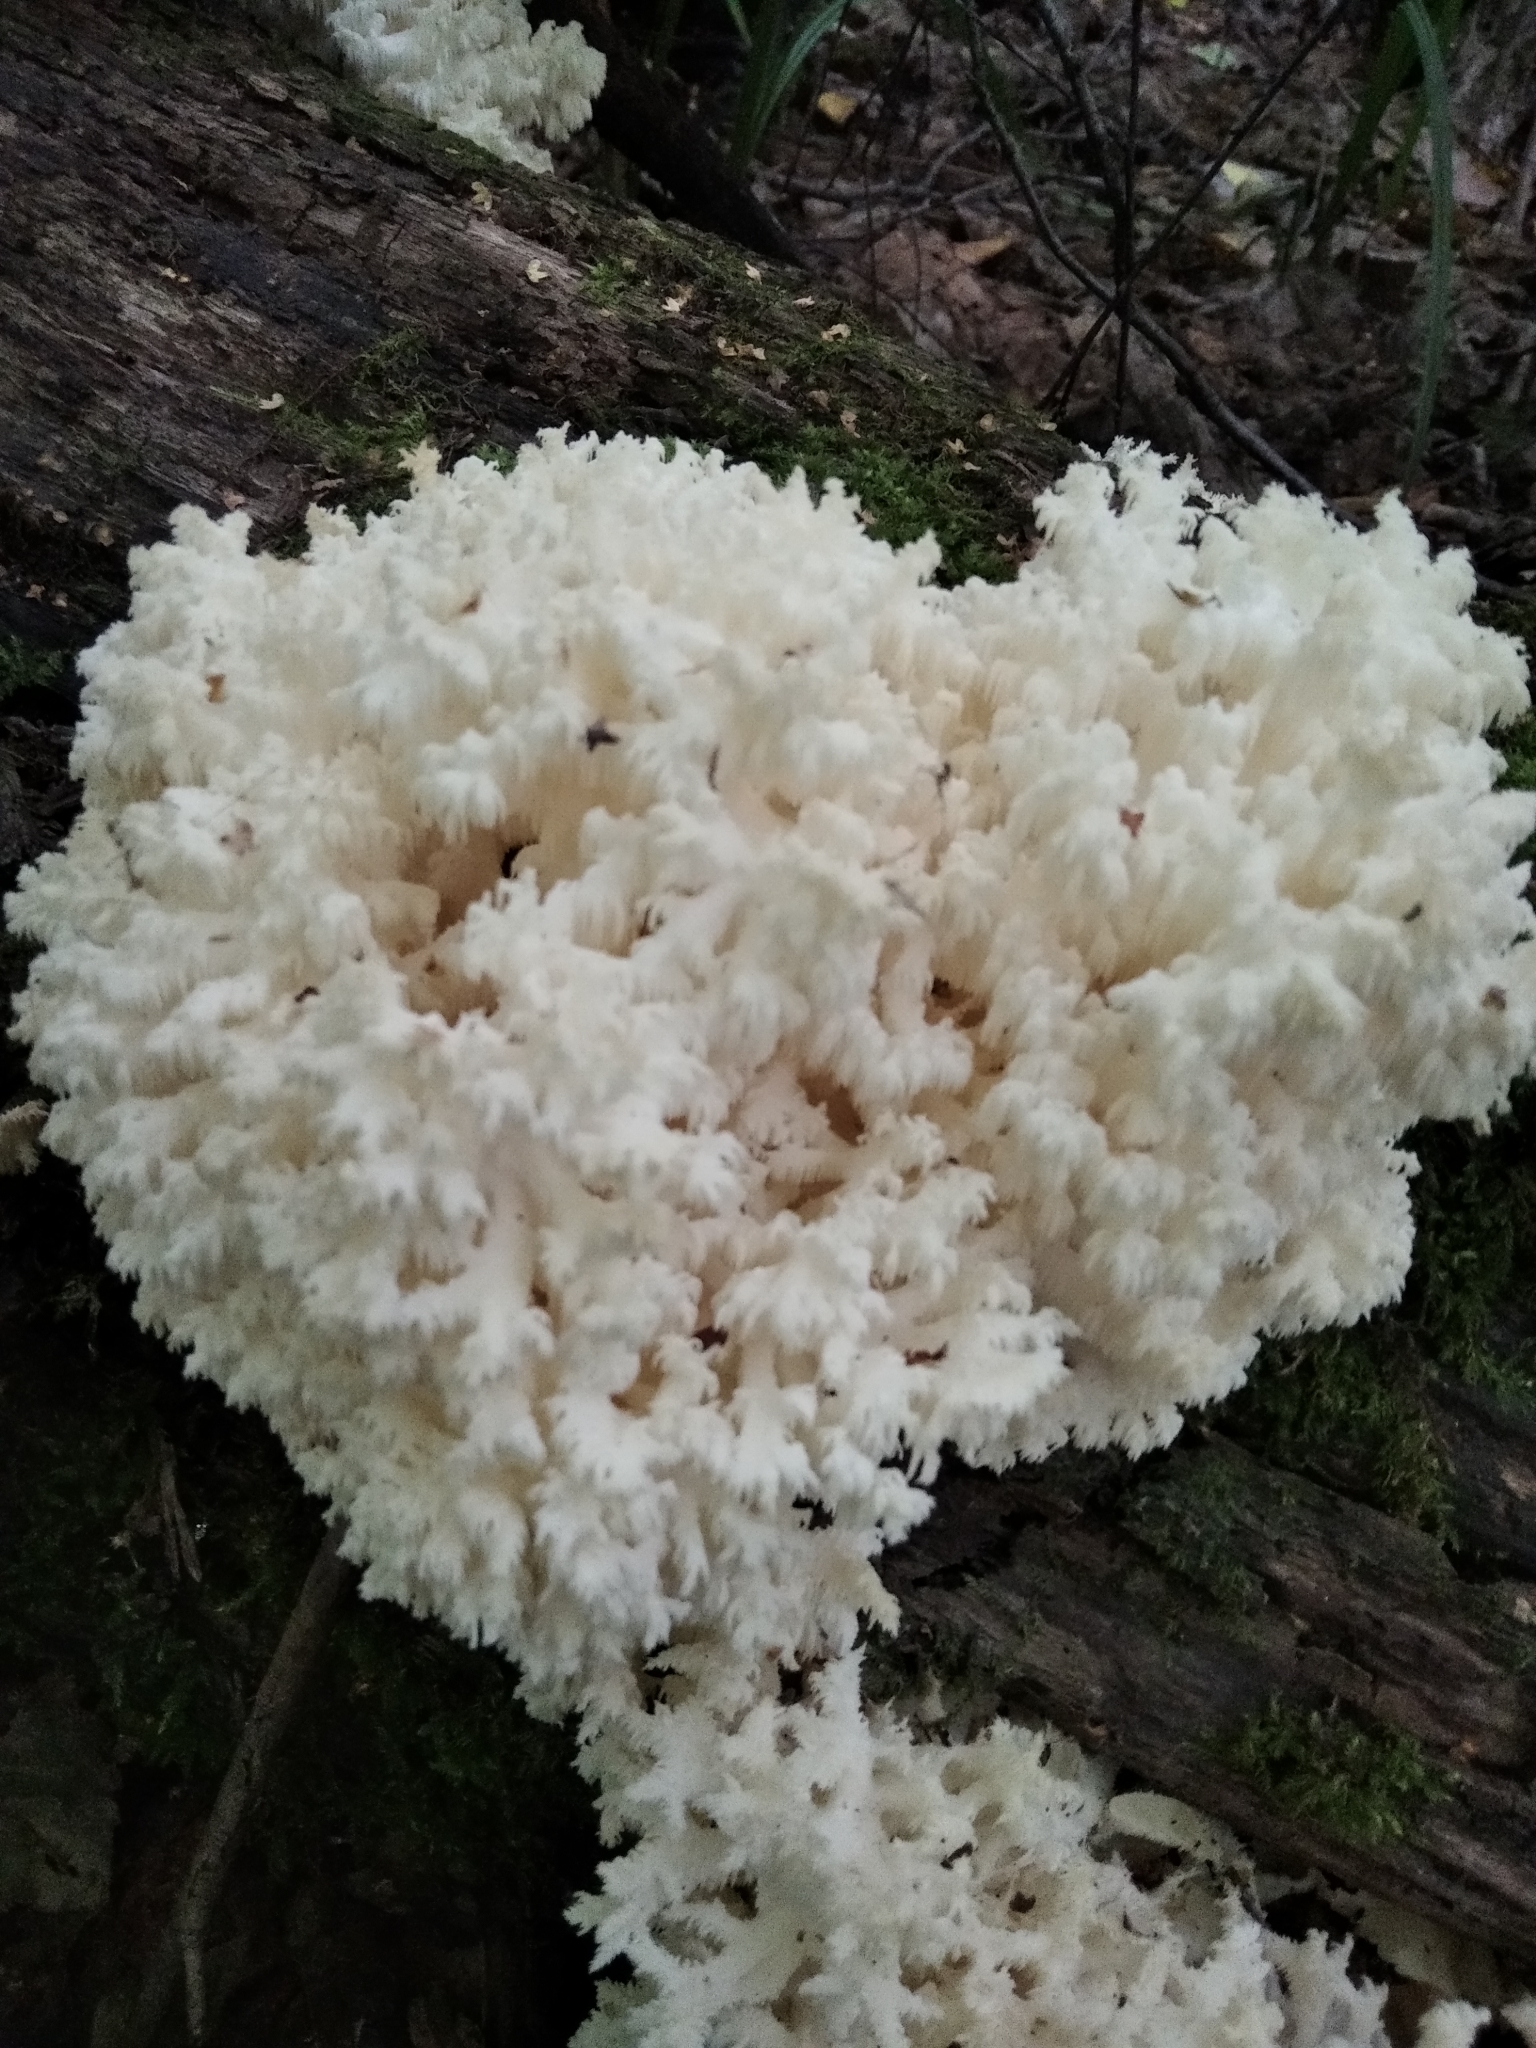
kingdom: Fungi
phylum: Basidiomycota
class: Agaricomycetes
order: Russulales
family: Hericiaceae
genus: Hericium
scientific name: Hericium coralloides
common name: Coral tooth
